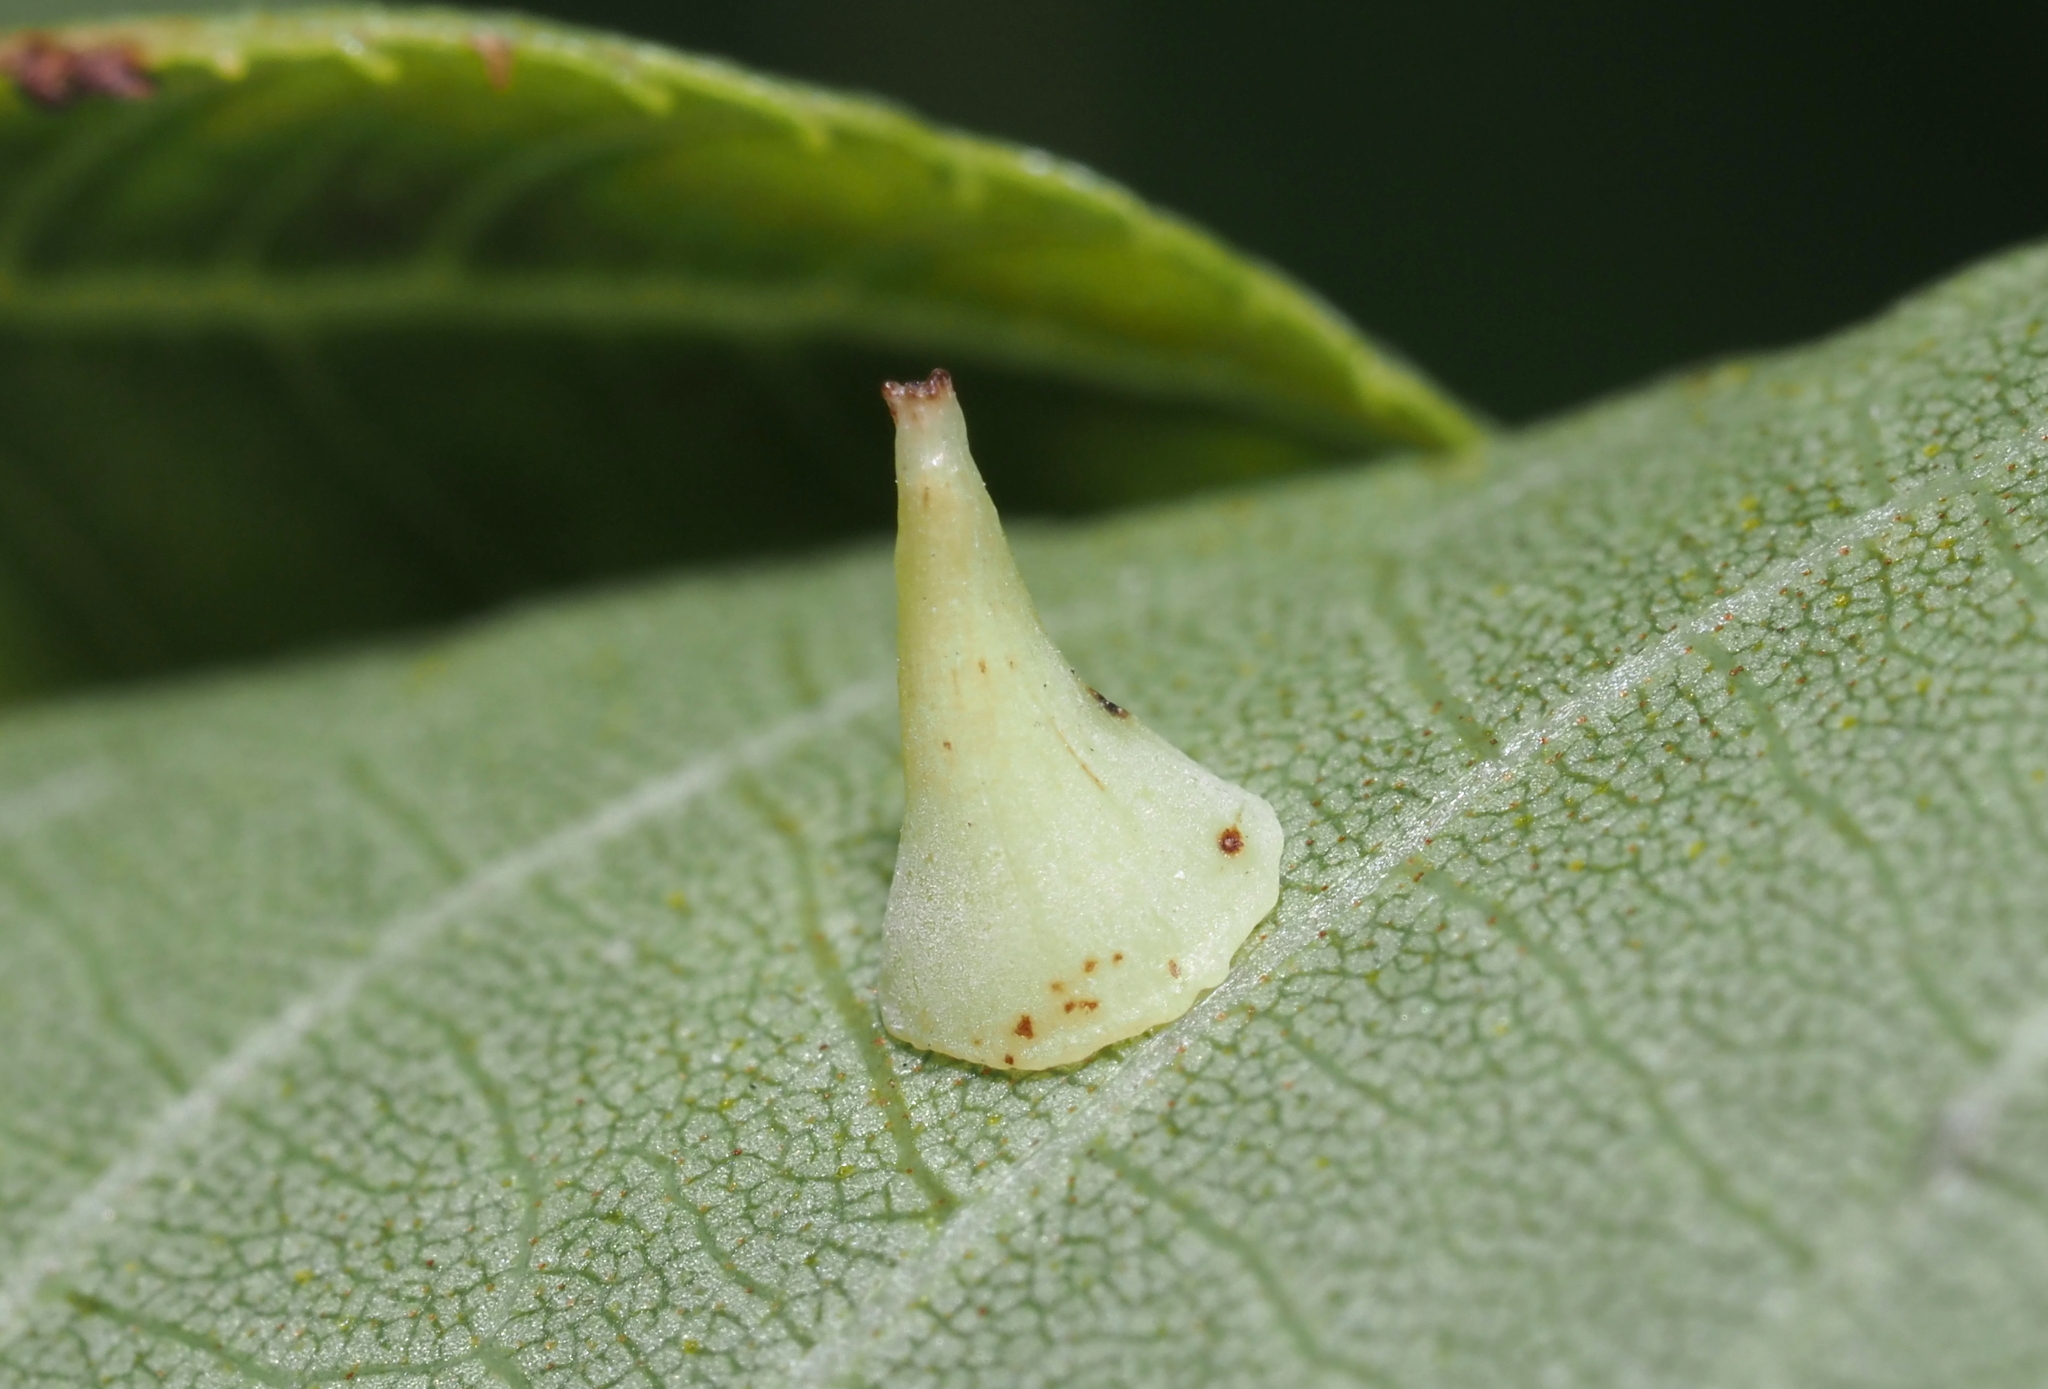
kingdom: Animalia
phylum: Arthropoda
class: Insecta
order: Diptera
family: Cecidomyiidae
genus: Caryomyia
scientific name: Caryomyia sanguinolenta
